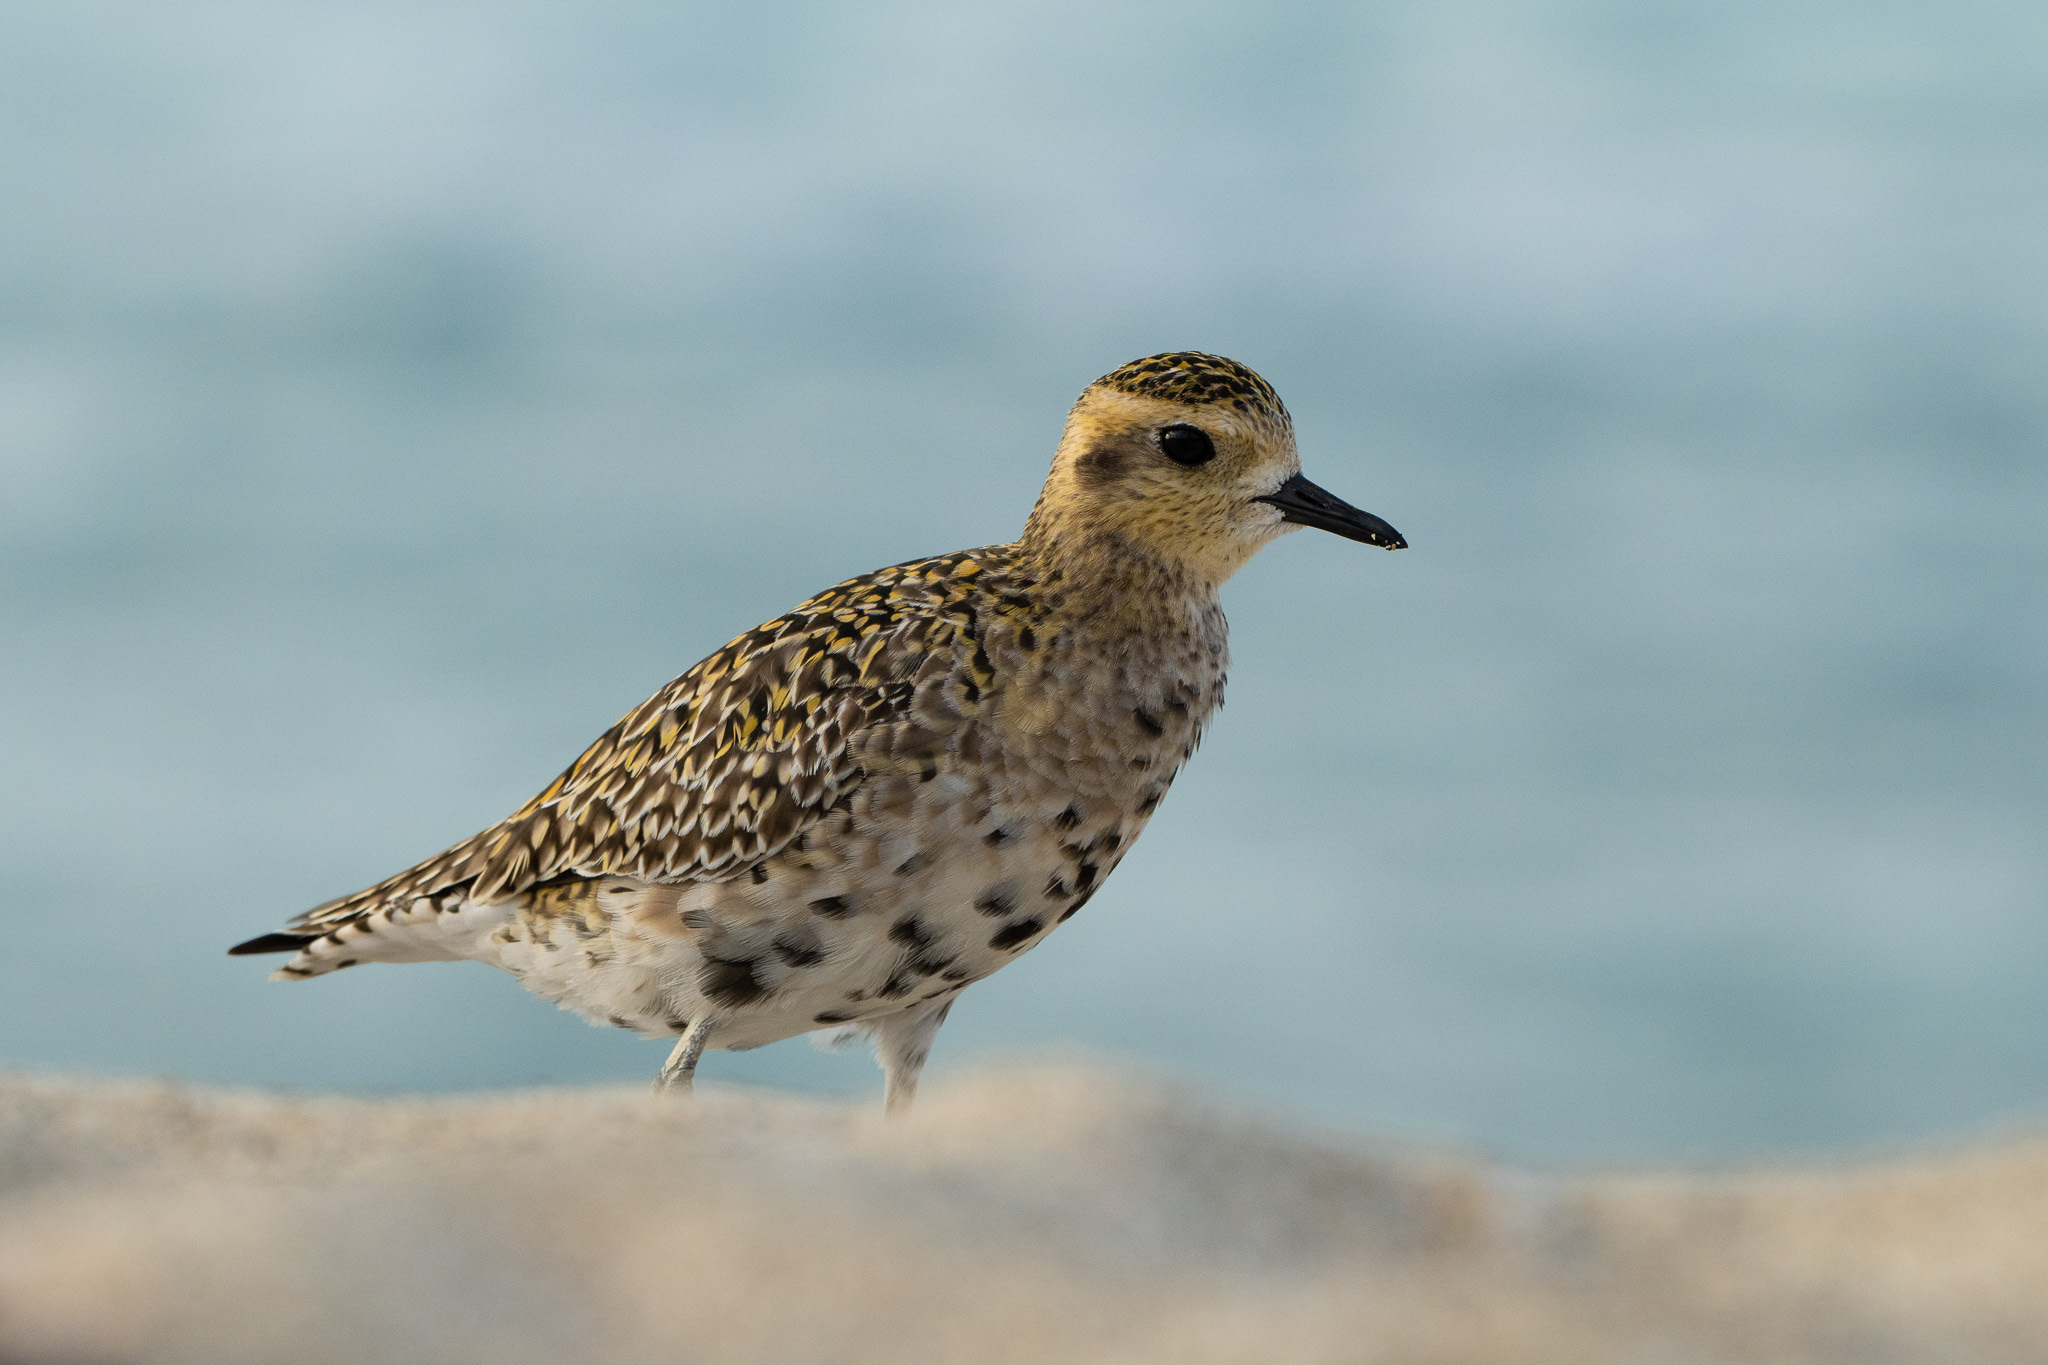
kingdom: Animalia
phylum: Chordata
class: Aves
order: Charadriiformes
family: Charadriidae
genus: Pluvialis
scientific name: Pluvialis fulva
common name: Pacific golden plover
